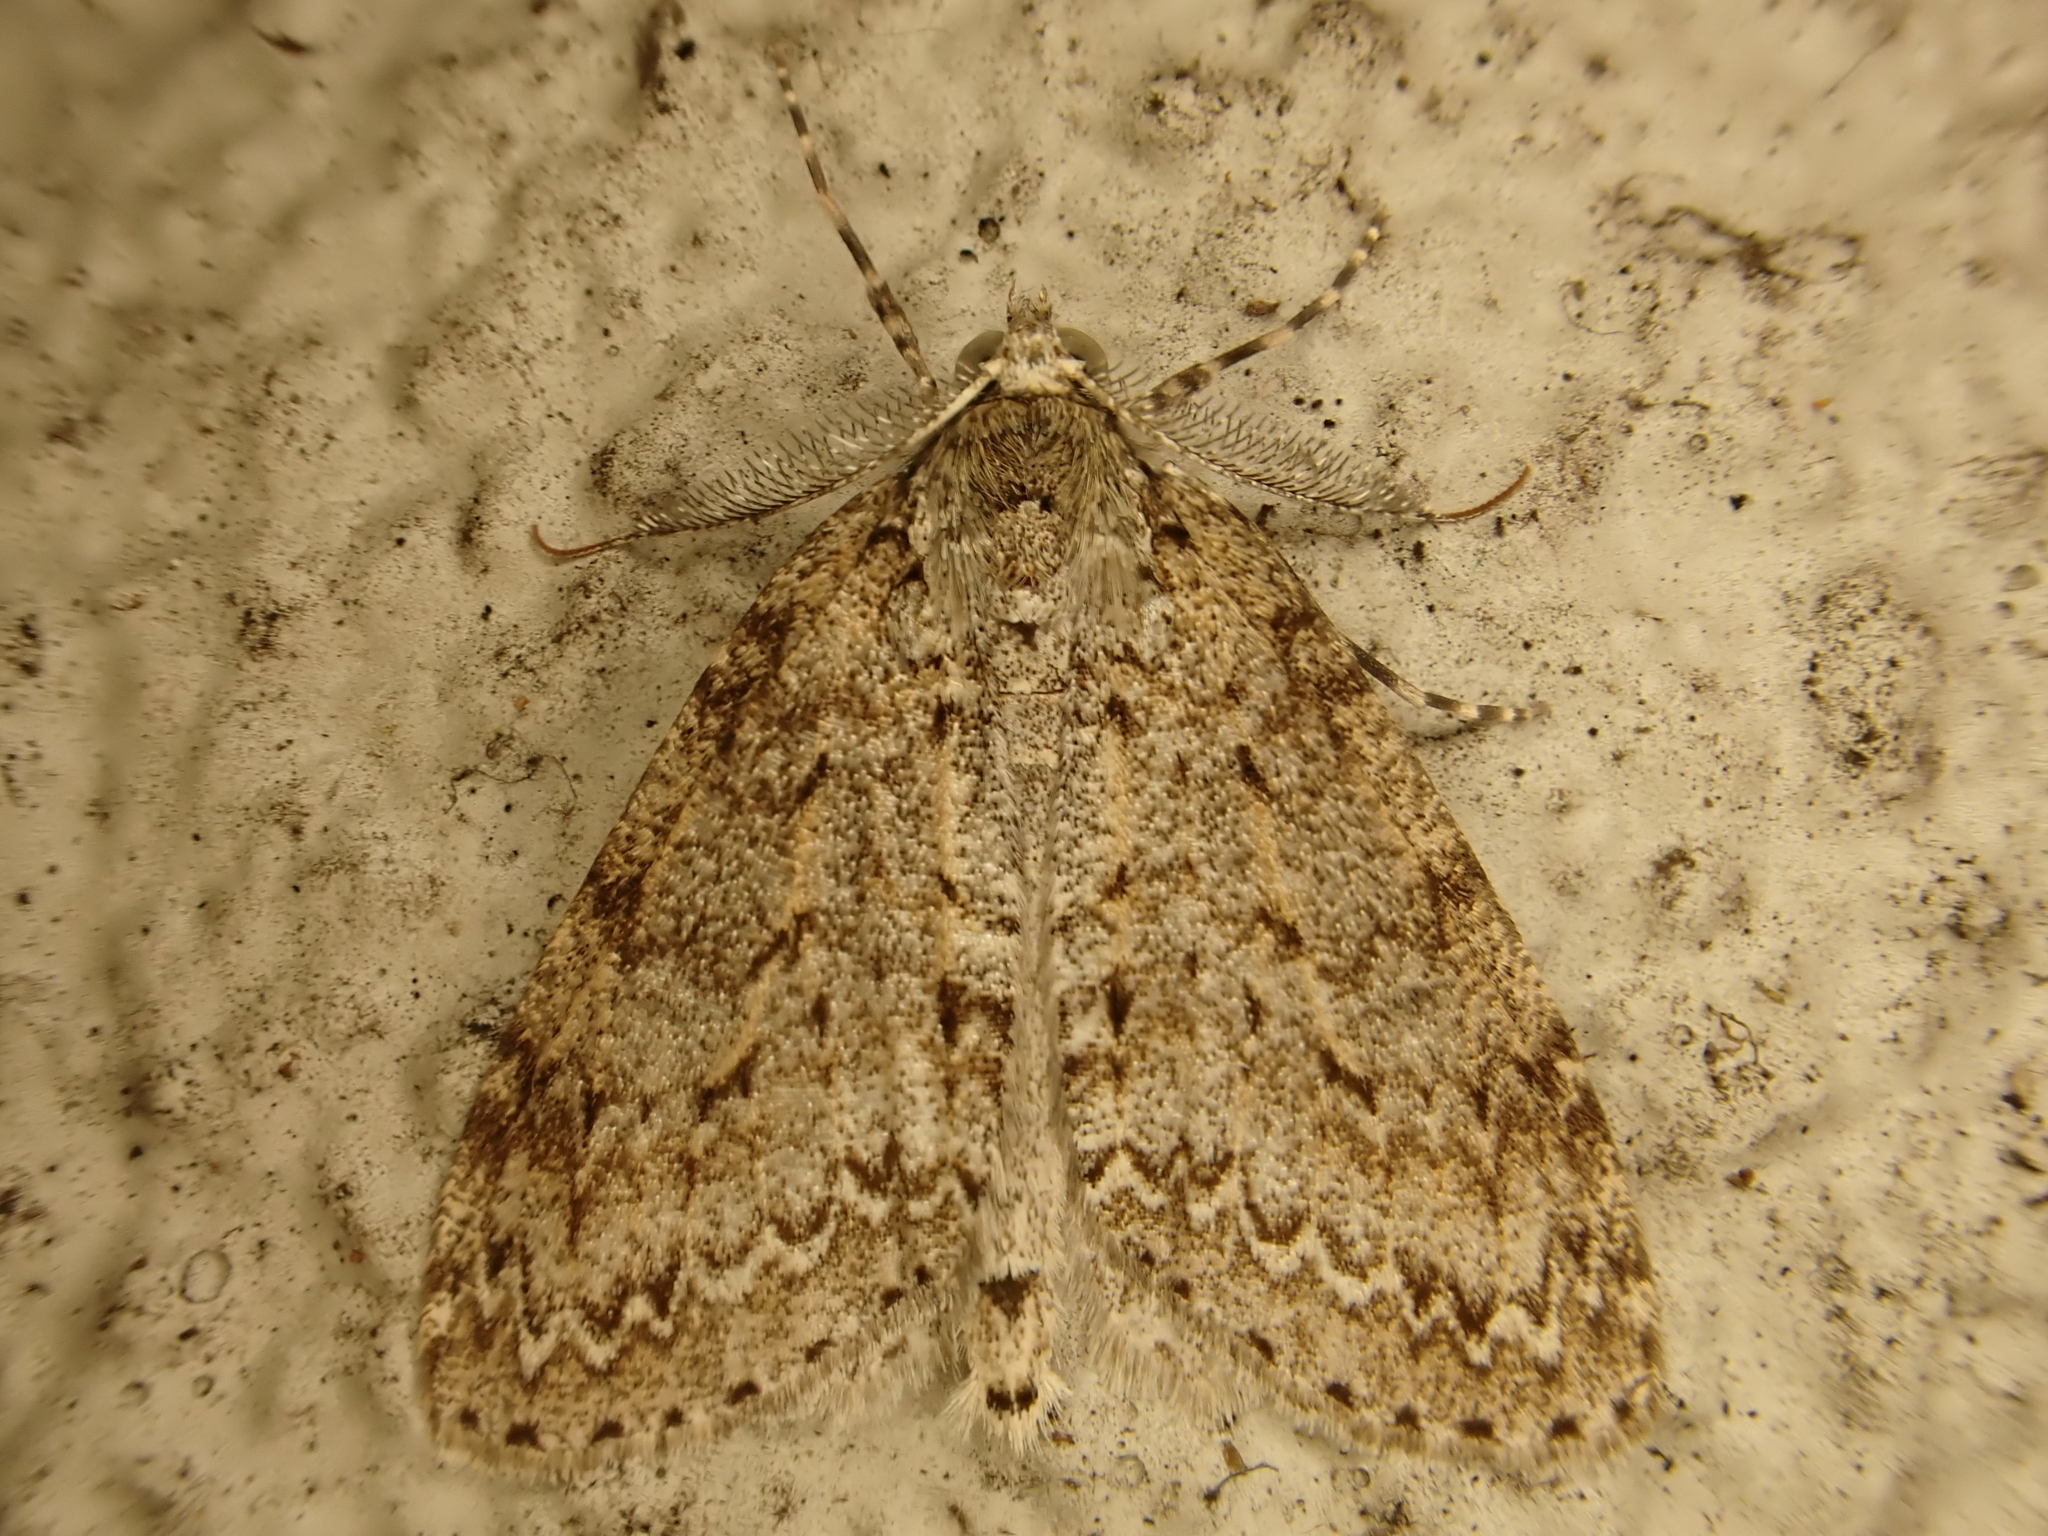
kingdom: Animalia
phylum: Arthropoda
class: Insecta
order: Lepidoptera
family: Geometridae
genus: Pseudocoremia
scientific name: Pseudocoremia fenerata
